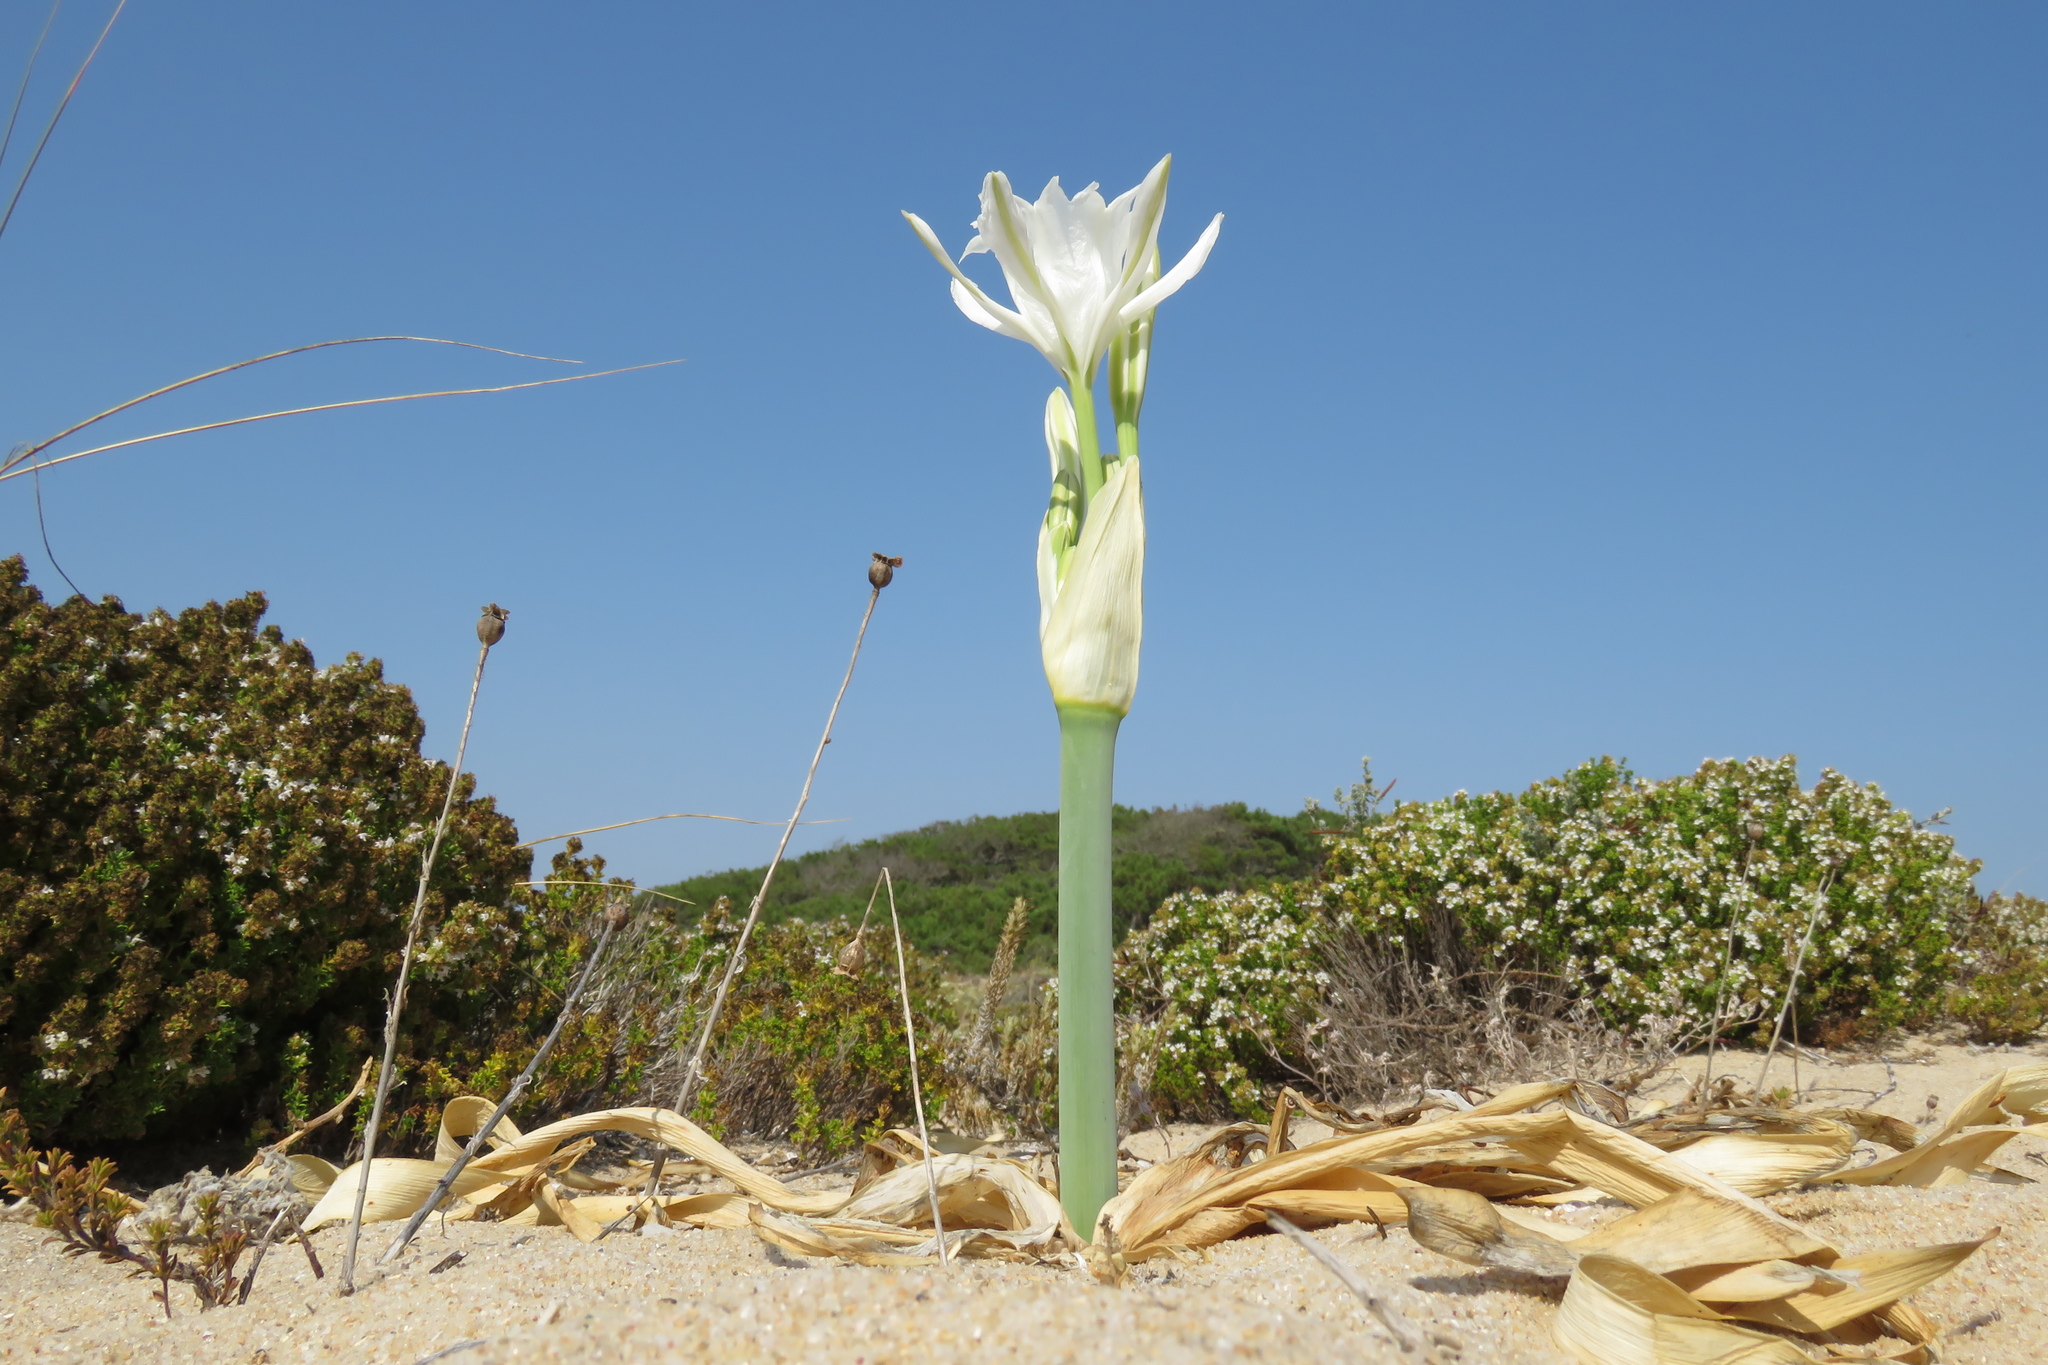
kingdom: Plantae
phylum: Tracheophyta
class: Liliopsida
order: Asparagales
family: Amaryllidaceae
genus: Pancratium
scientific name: Pancratium maritimum
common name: Sea-daffodil
